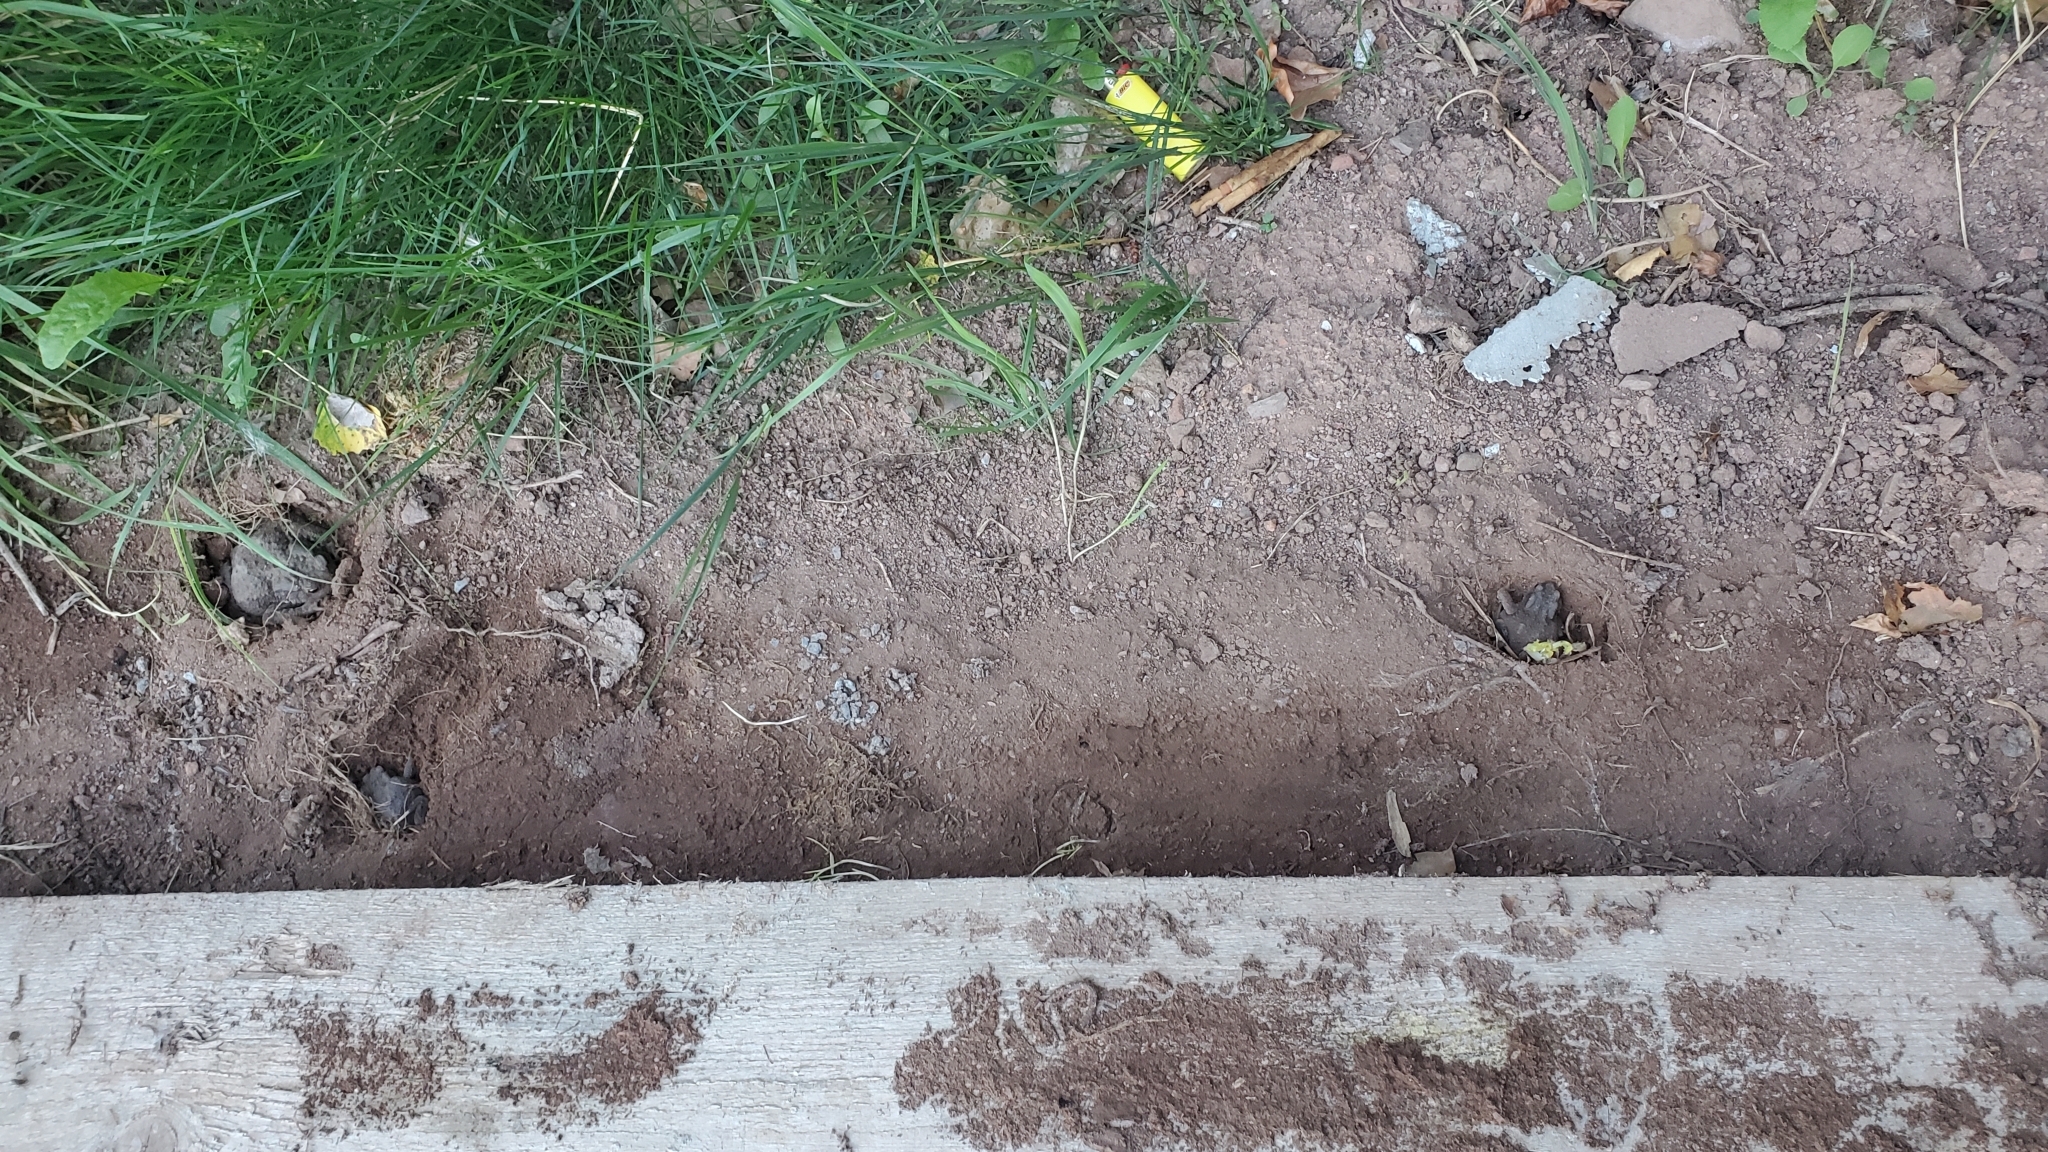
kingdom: Animalia
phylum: Chordata
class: Amphibia
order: Anura
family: Bufonidae
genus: Bufo
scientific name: Bufo bufo
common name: Common toad
